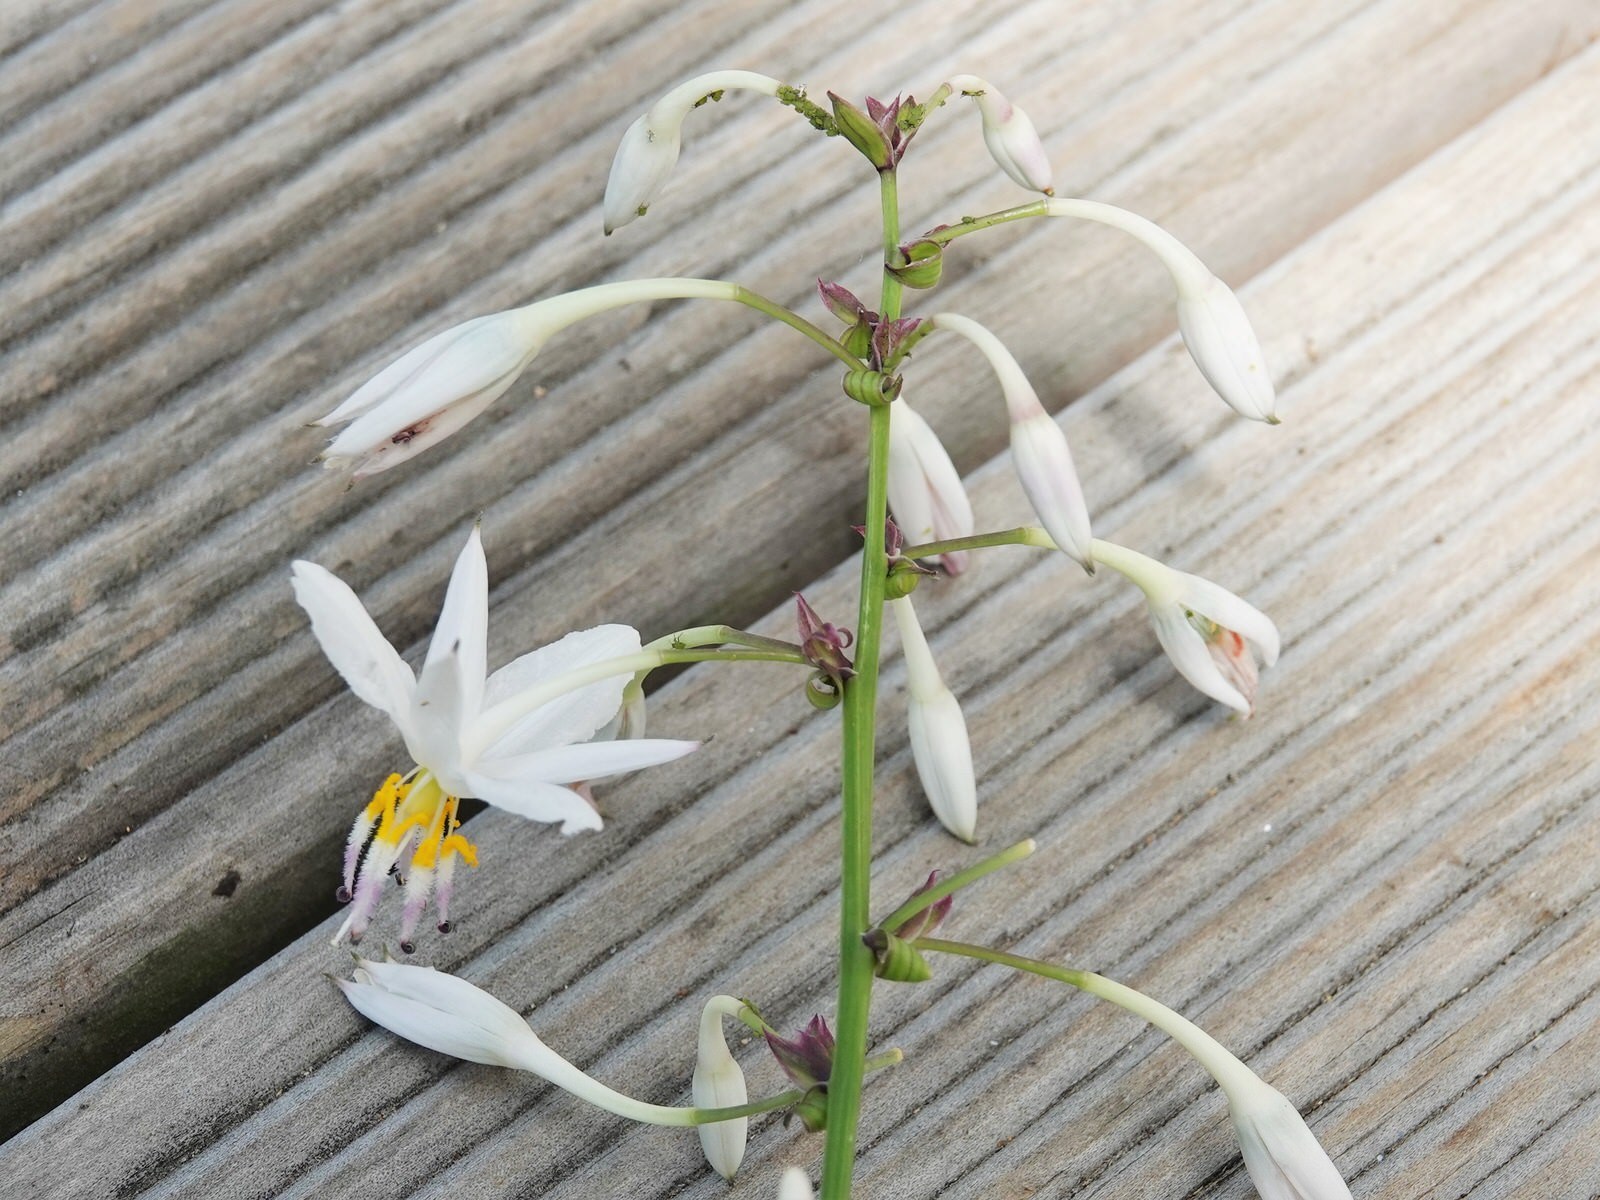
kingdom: Plantae
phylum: Tracheophyta
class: Liliopsida
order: Asparagales
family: Asparagaceae
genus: Arthropodium
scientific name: Arthropodium cirratum
